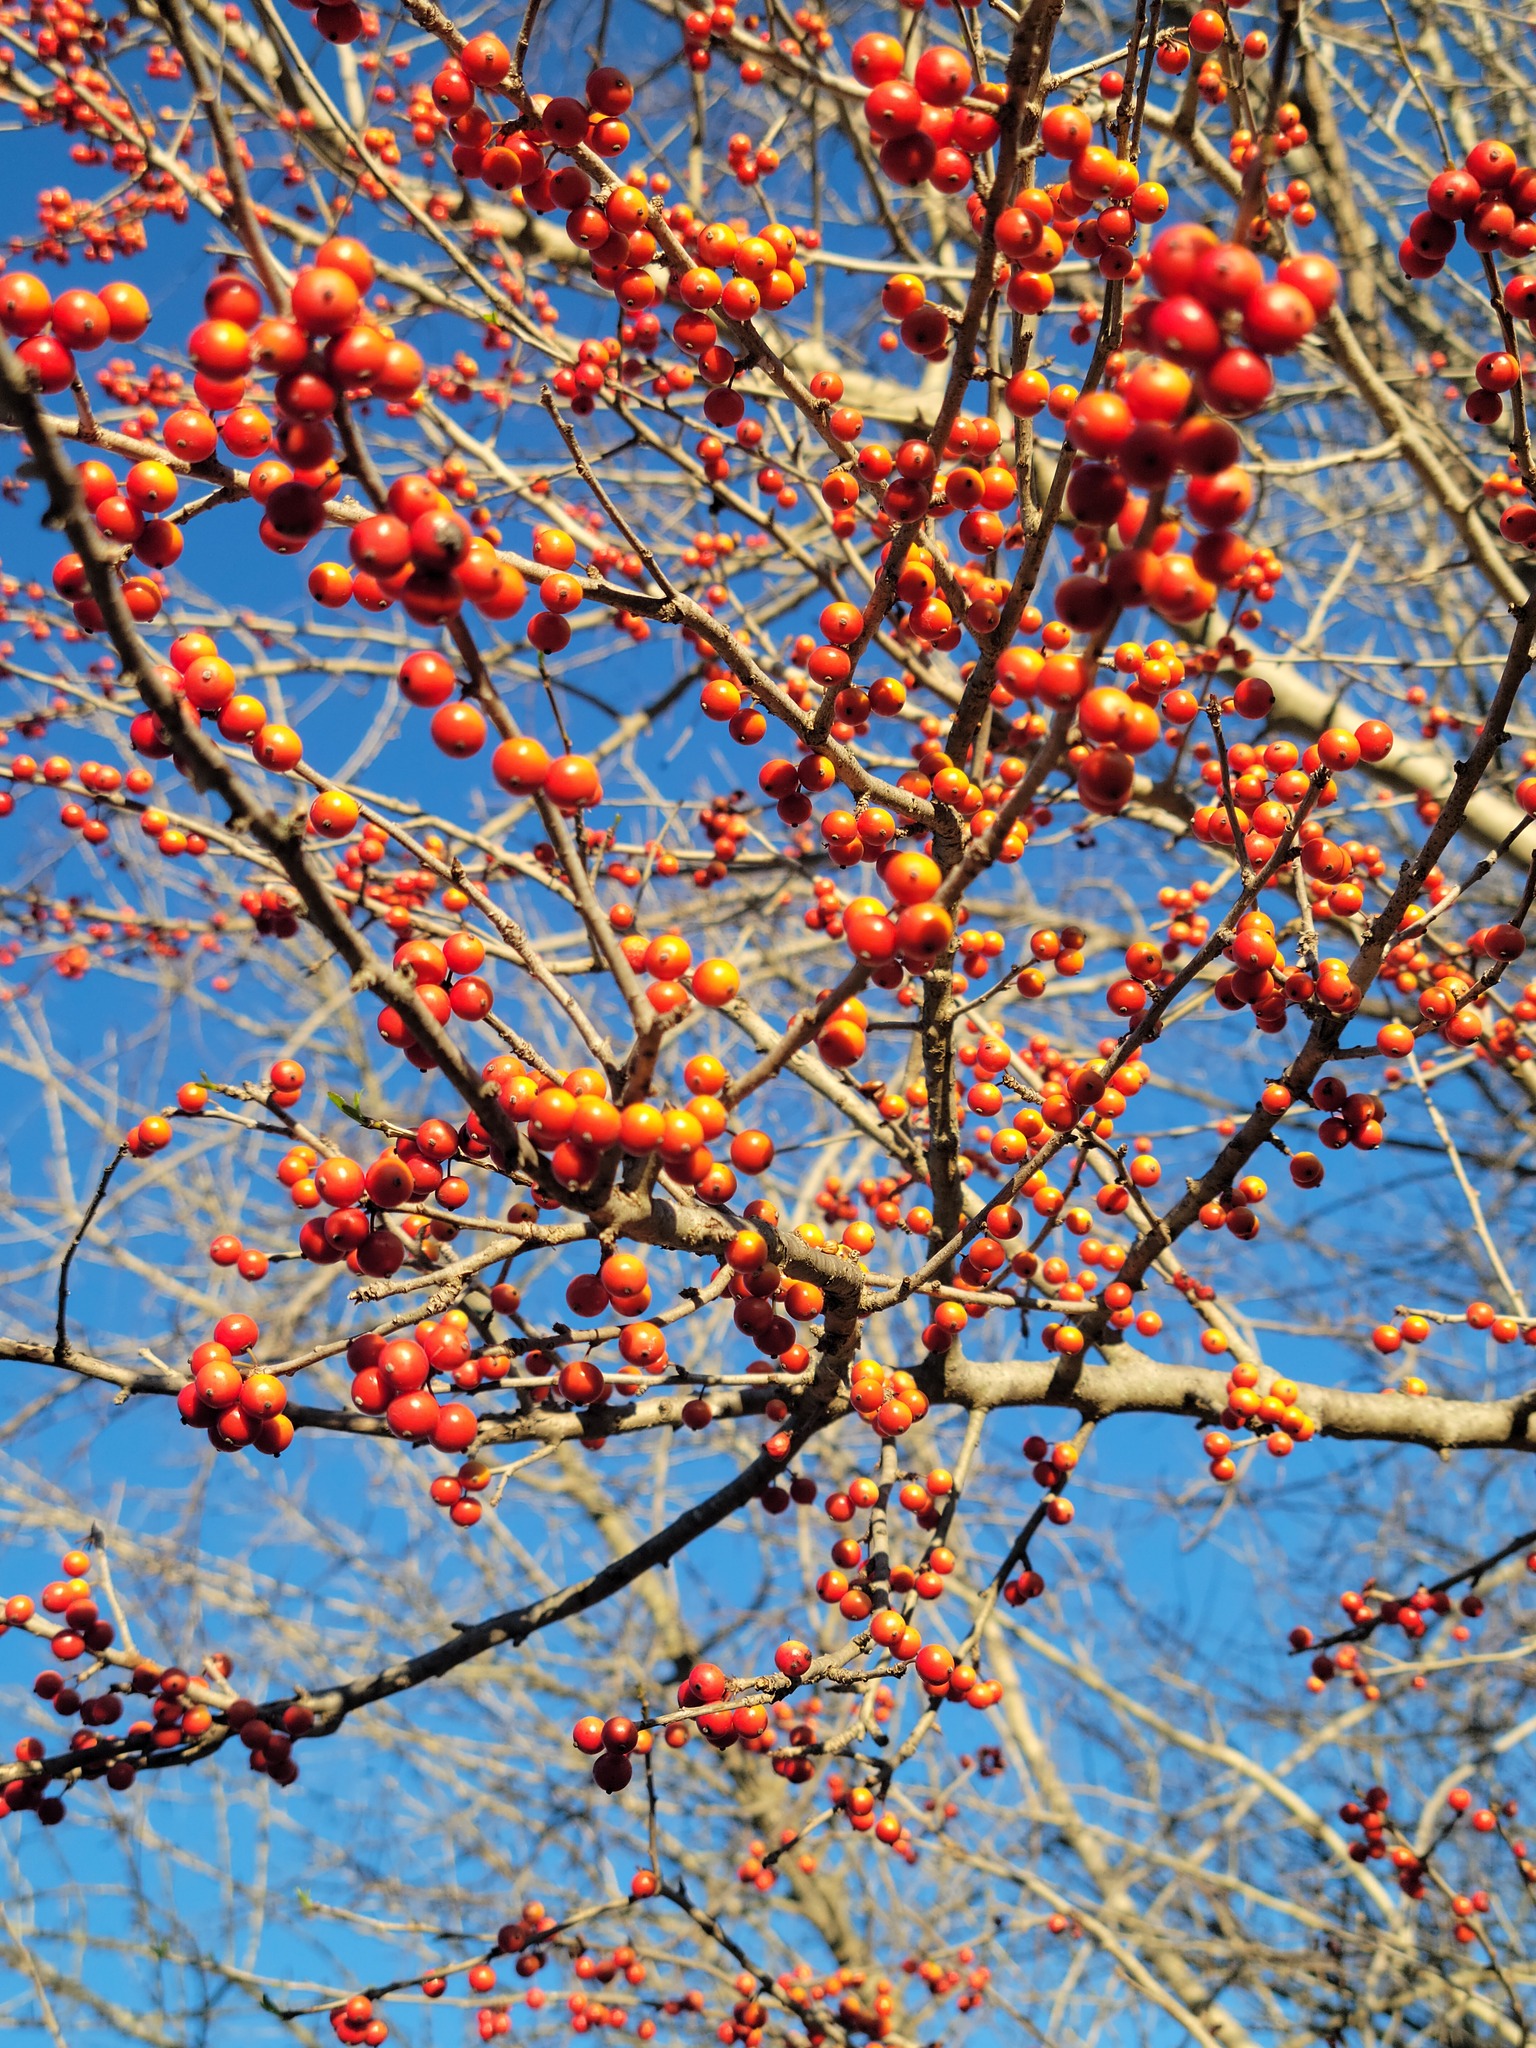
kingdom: Plantae
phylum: Tracheophyta
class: Magnoliopsida
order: Aquifoliales
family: Aquifoliaceae
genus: Ilex
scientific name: Ilex decidua
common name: Possum-haw
